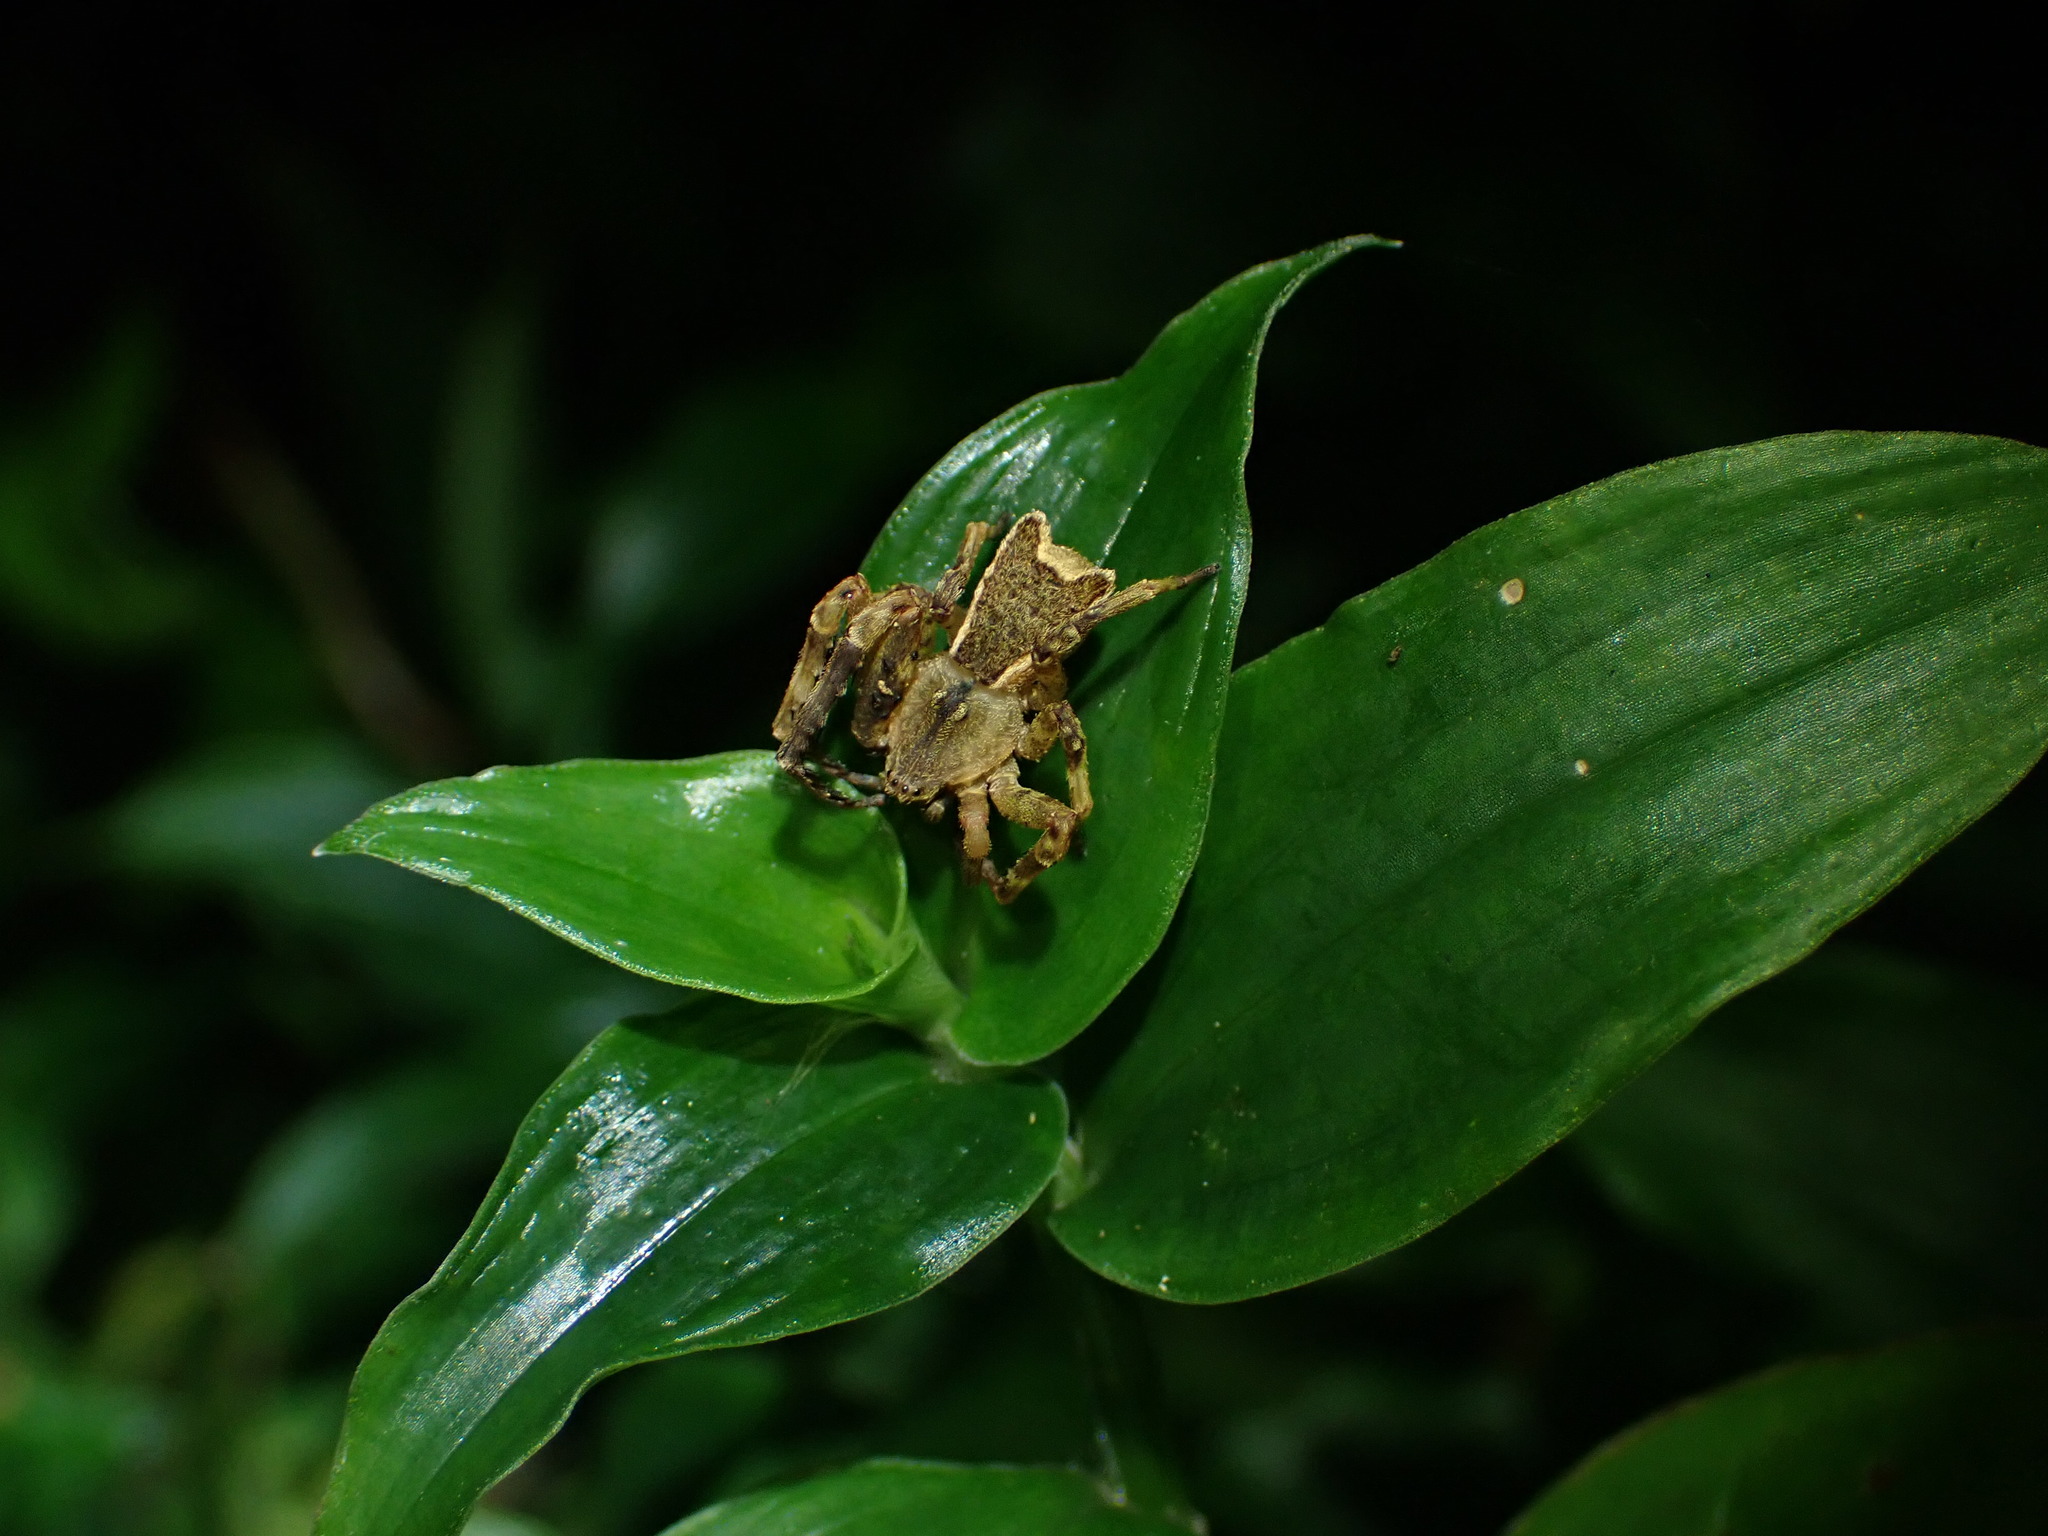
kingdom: Animalia
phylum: Arthropoda
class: Arachnida
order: Araneae
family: Thomisidae
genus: Sidymella
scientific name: Sidymella angularis
